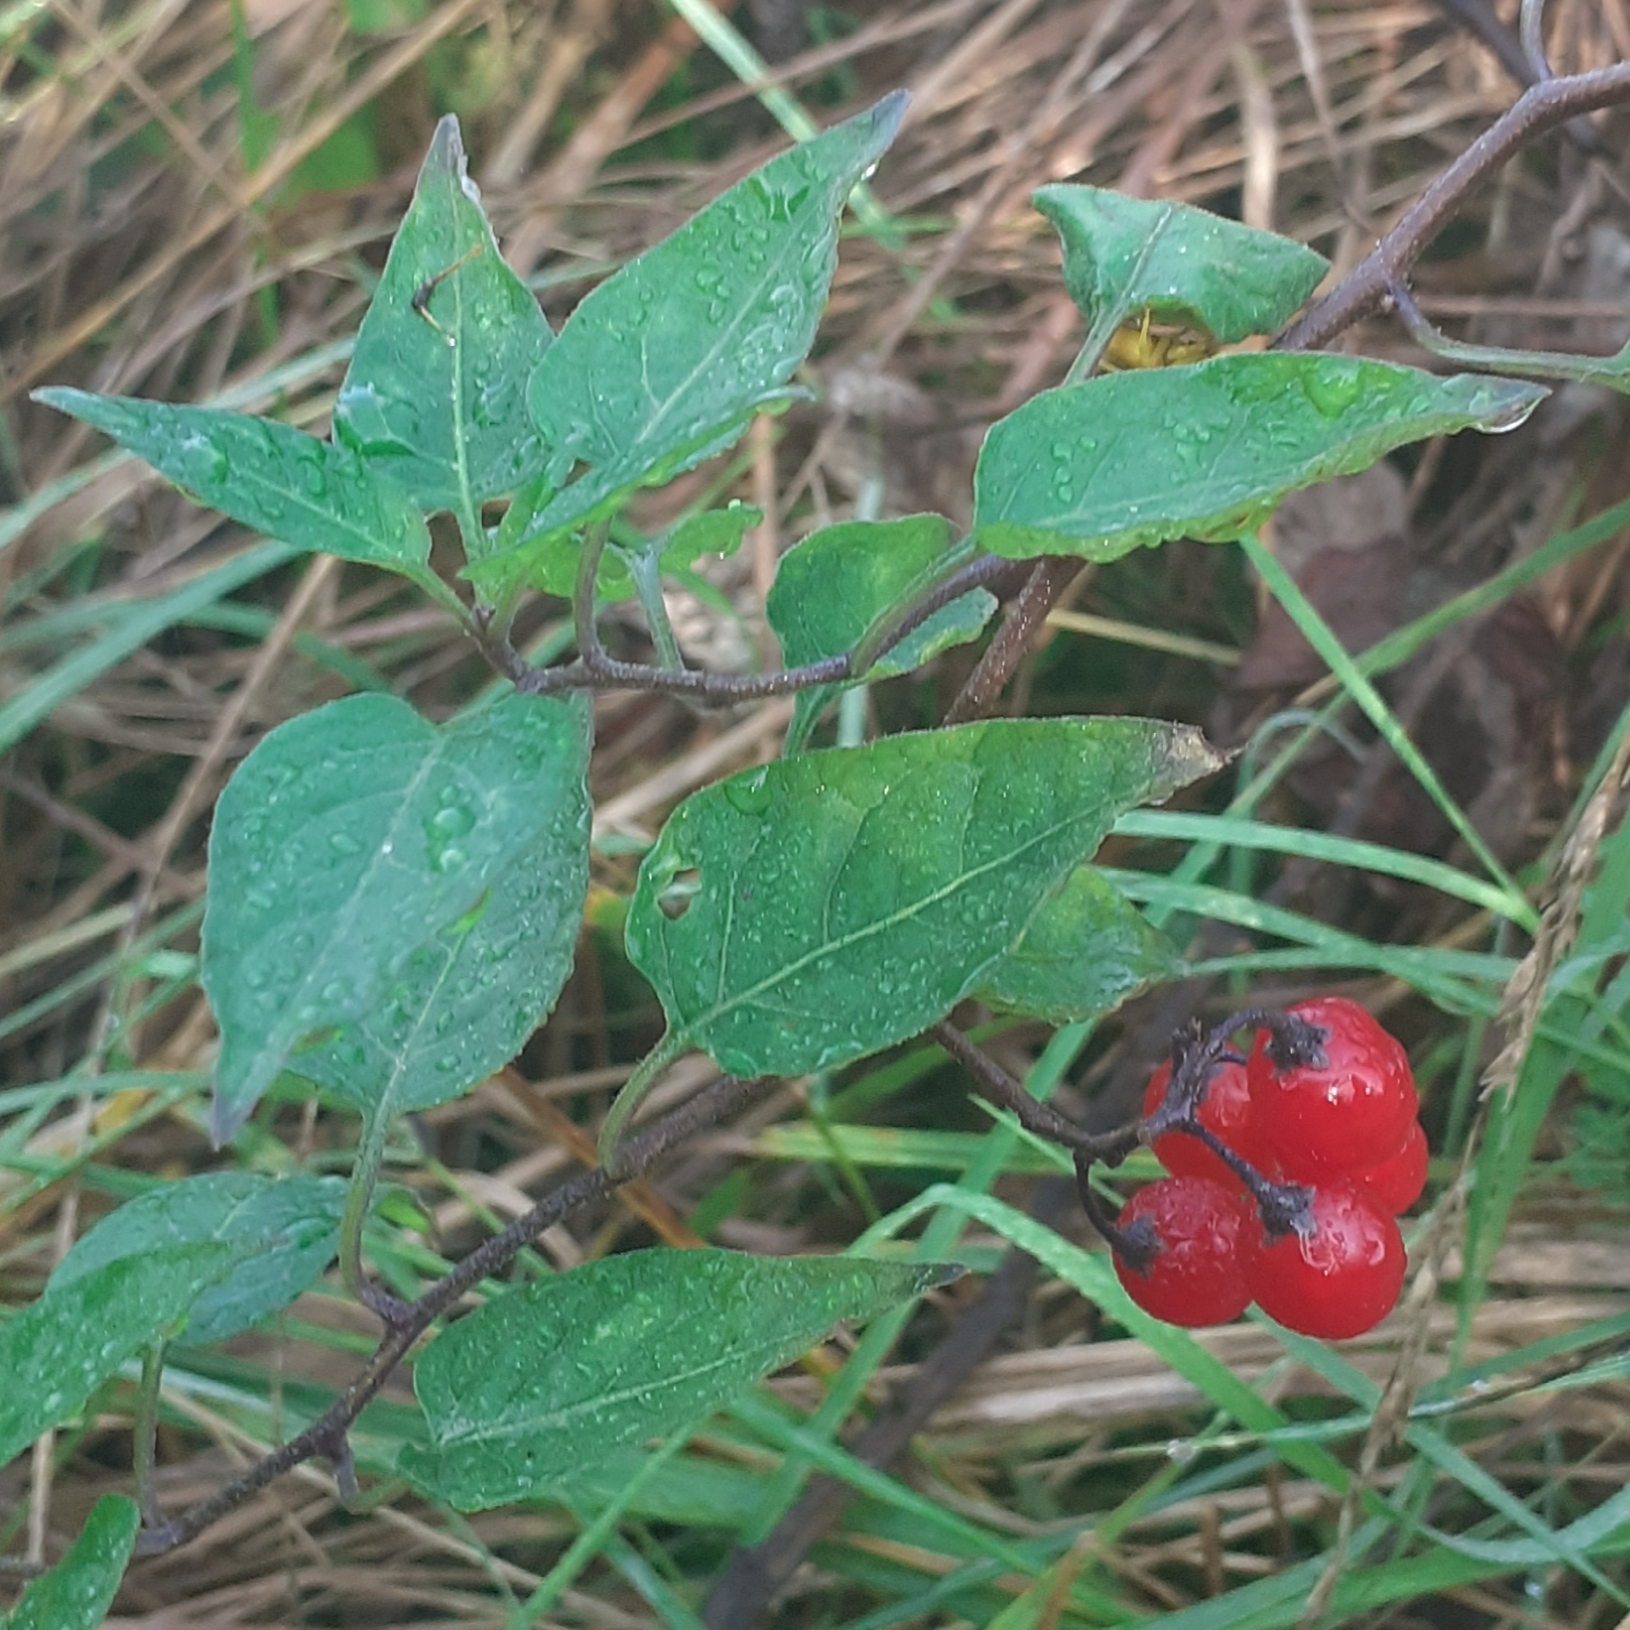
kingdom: Plantae
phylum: Tracheophyta
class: Magnoliopsida
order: Solanales
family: Solanaceae
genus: Solanum
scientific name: Solanum dulcamara
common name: Climbing nightshade
